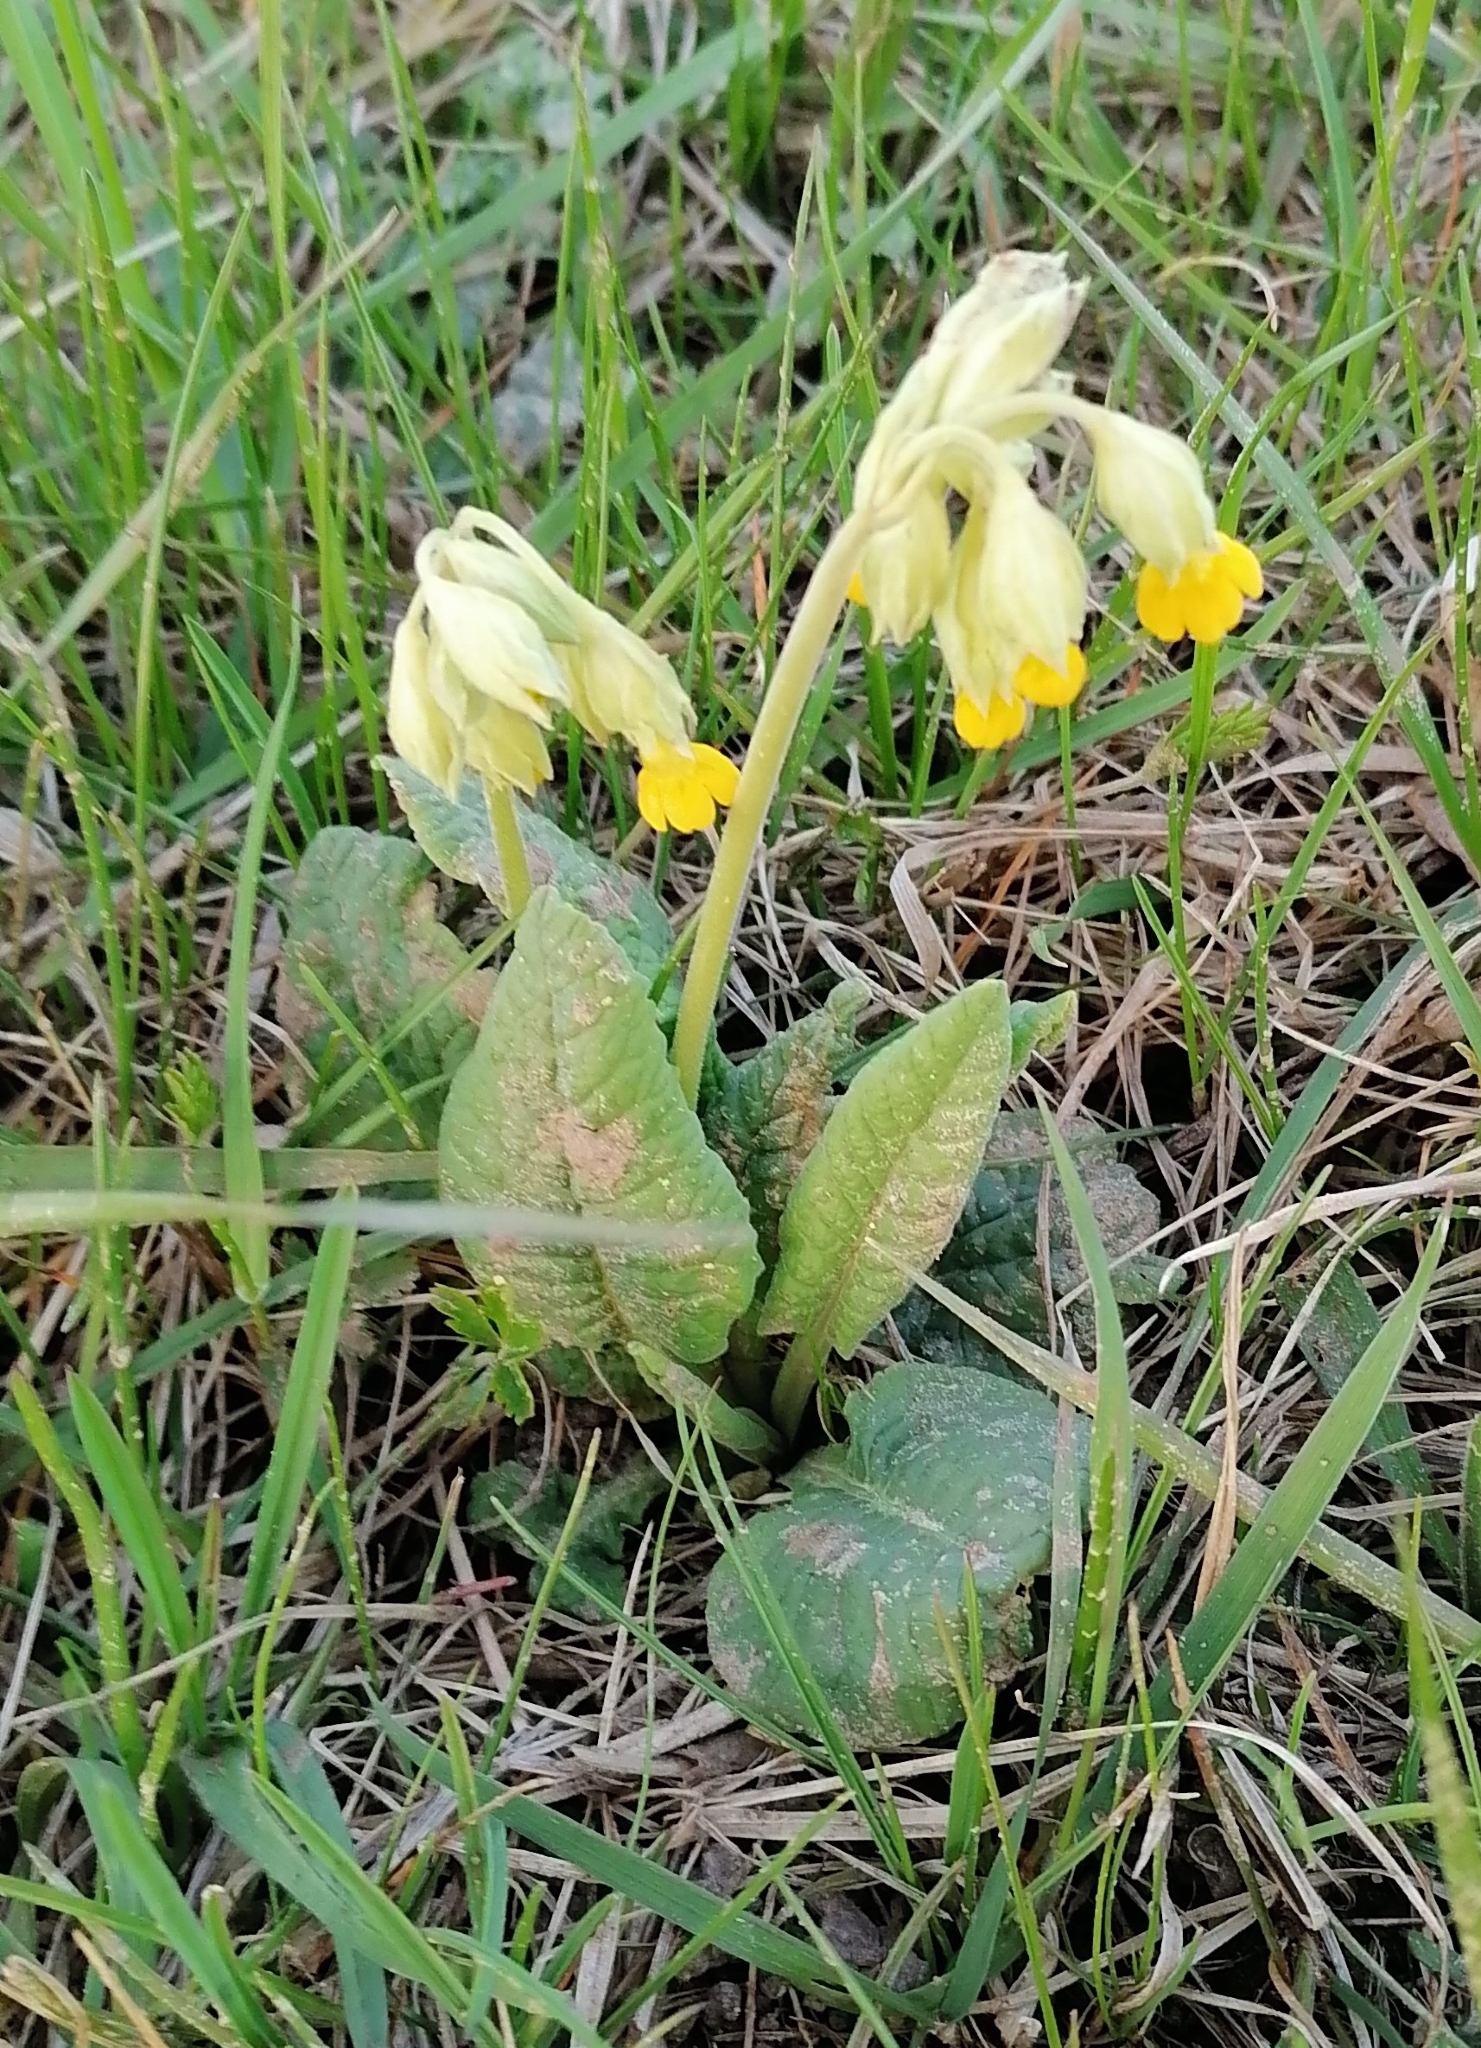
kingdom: Plantae
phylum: Tracheophyta
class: Magnoliopsida
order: Ericales
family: Primulaceae
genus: Primula
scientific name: Primula veris
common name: Cowslip
